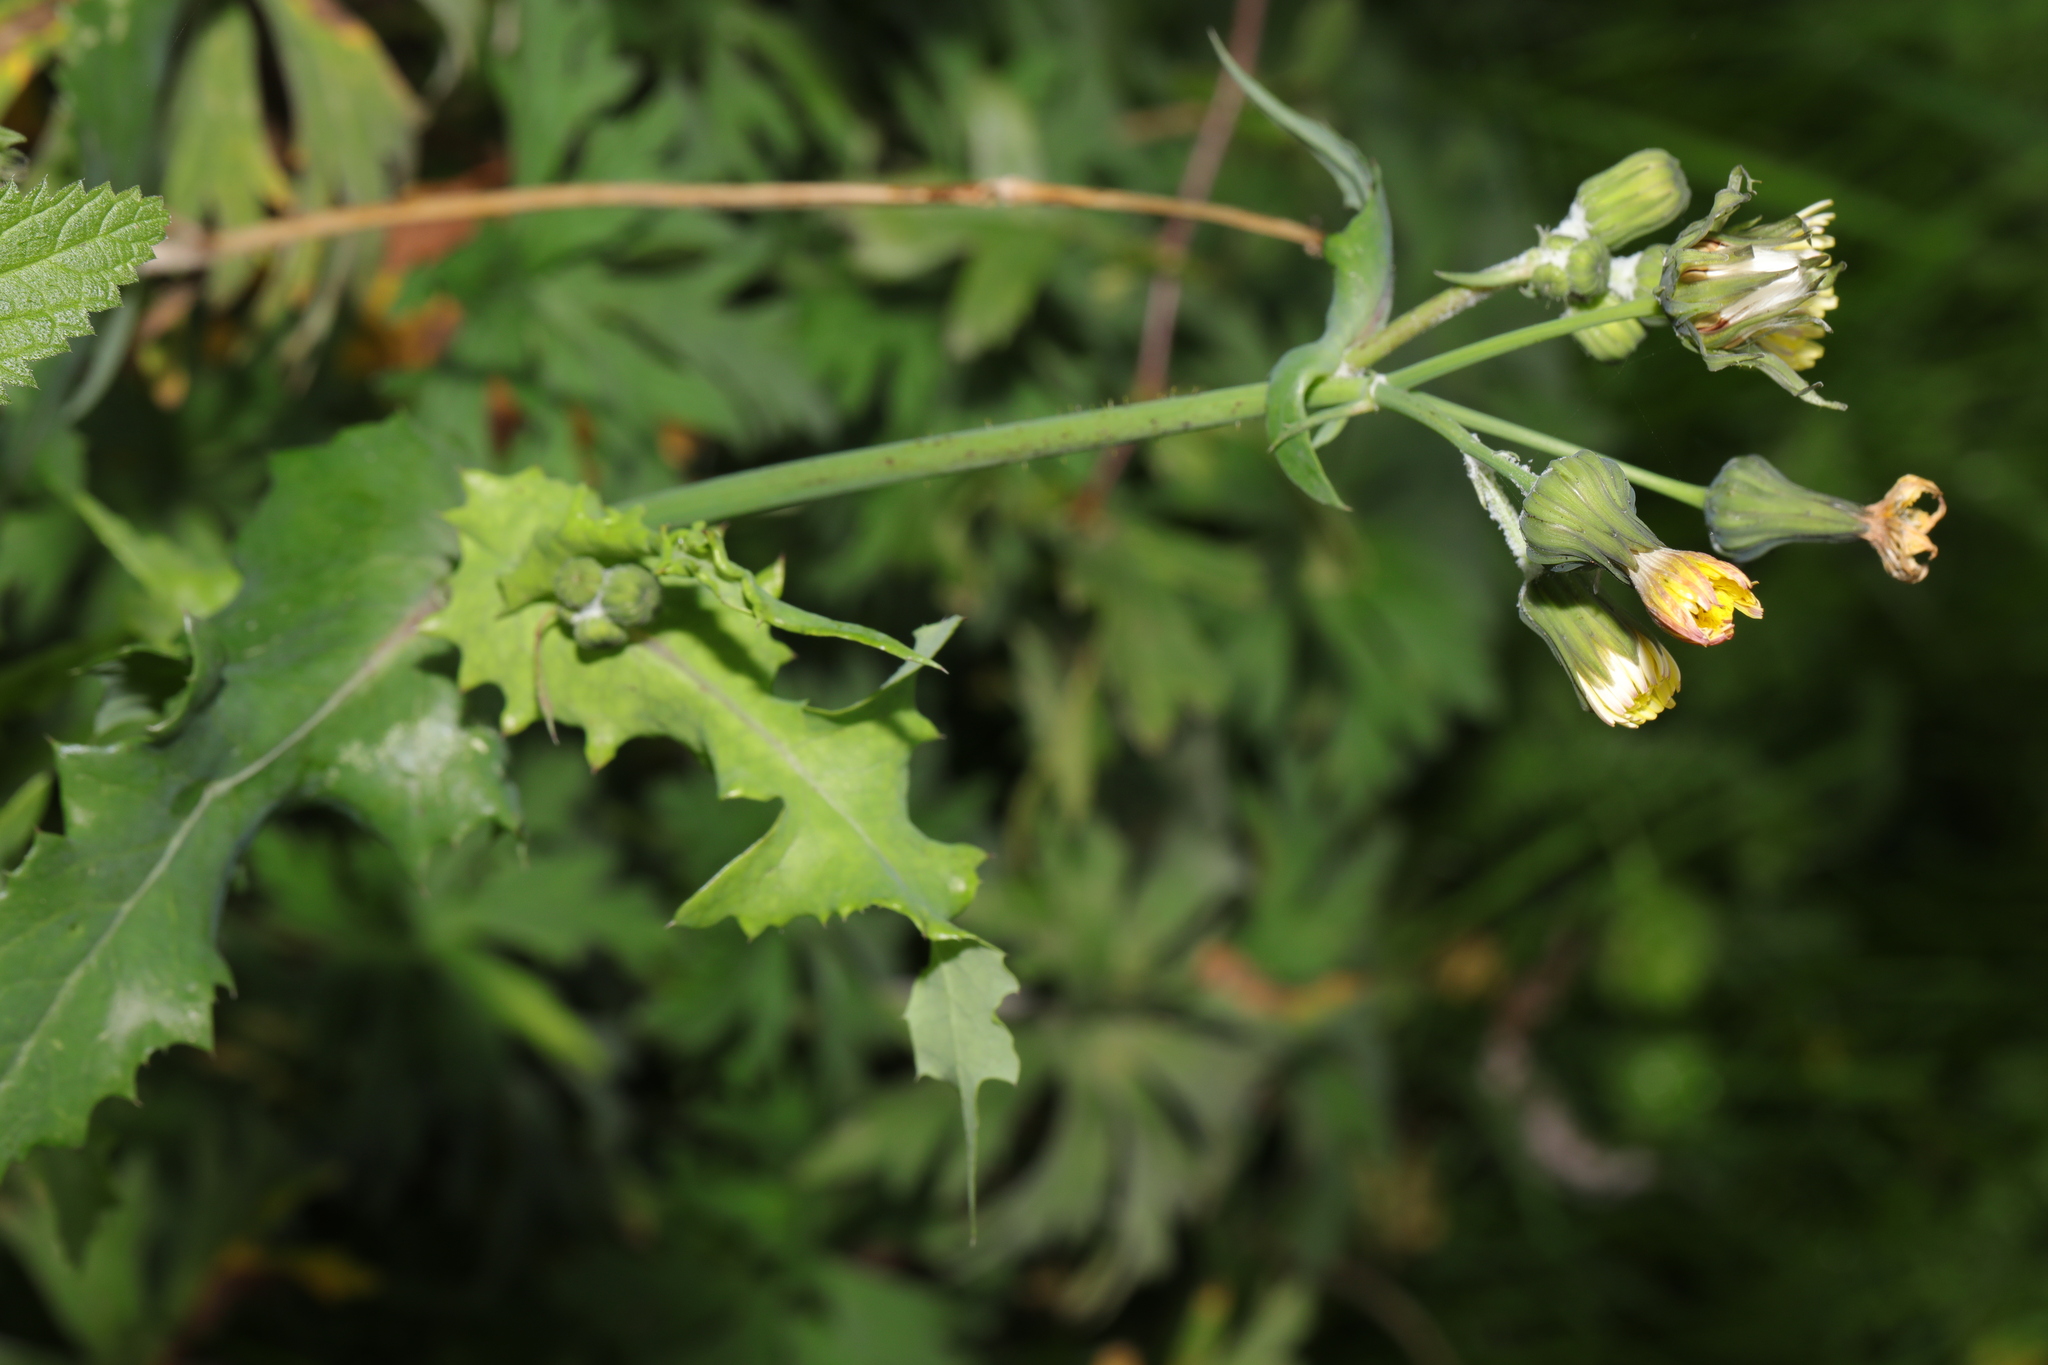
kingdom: Plantae
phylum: Tracheophyta
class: Magnoliopsida
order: Asterales
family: Asteraceae
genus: Sonchus
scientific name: Sonchus oleraceus
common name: Common sowthistle
